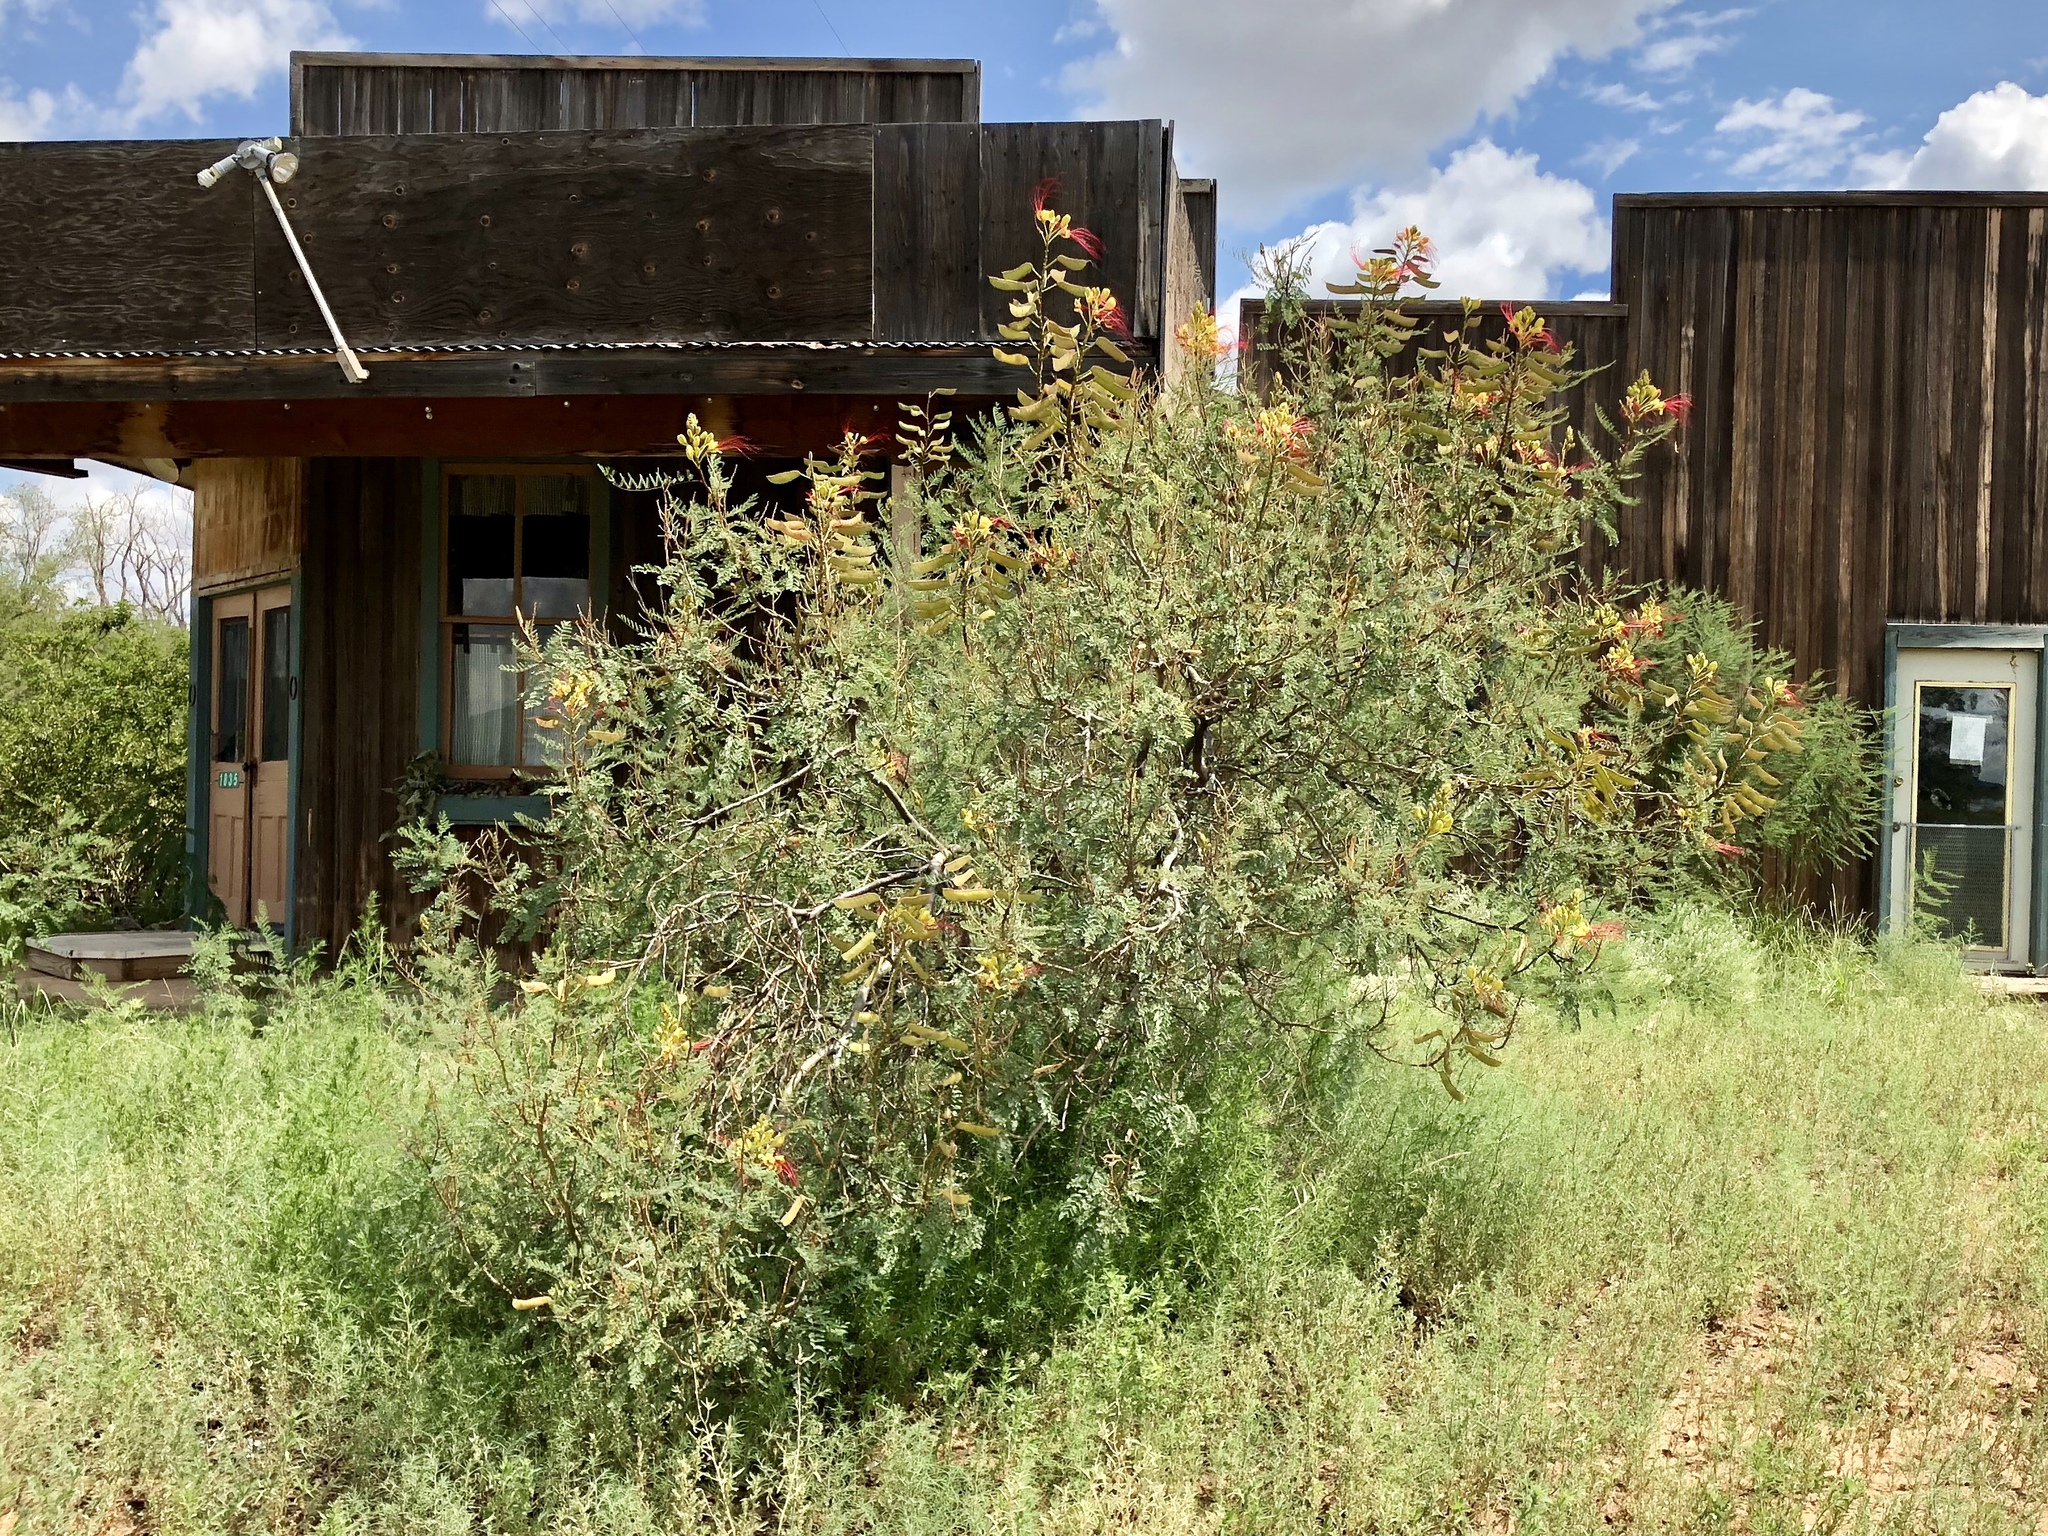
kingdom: Plantae
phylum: Tracheophyta
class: Magnoliopsida
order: Fabales
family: Fabaceae
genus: Erythrostemon
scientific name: Erythrostemon gilliesii
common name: Bird-of-paradise shrub
